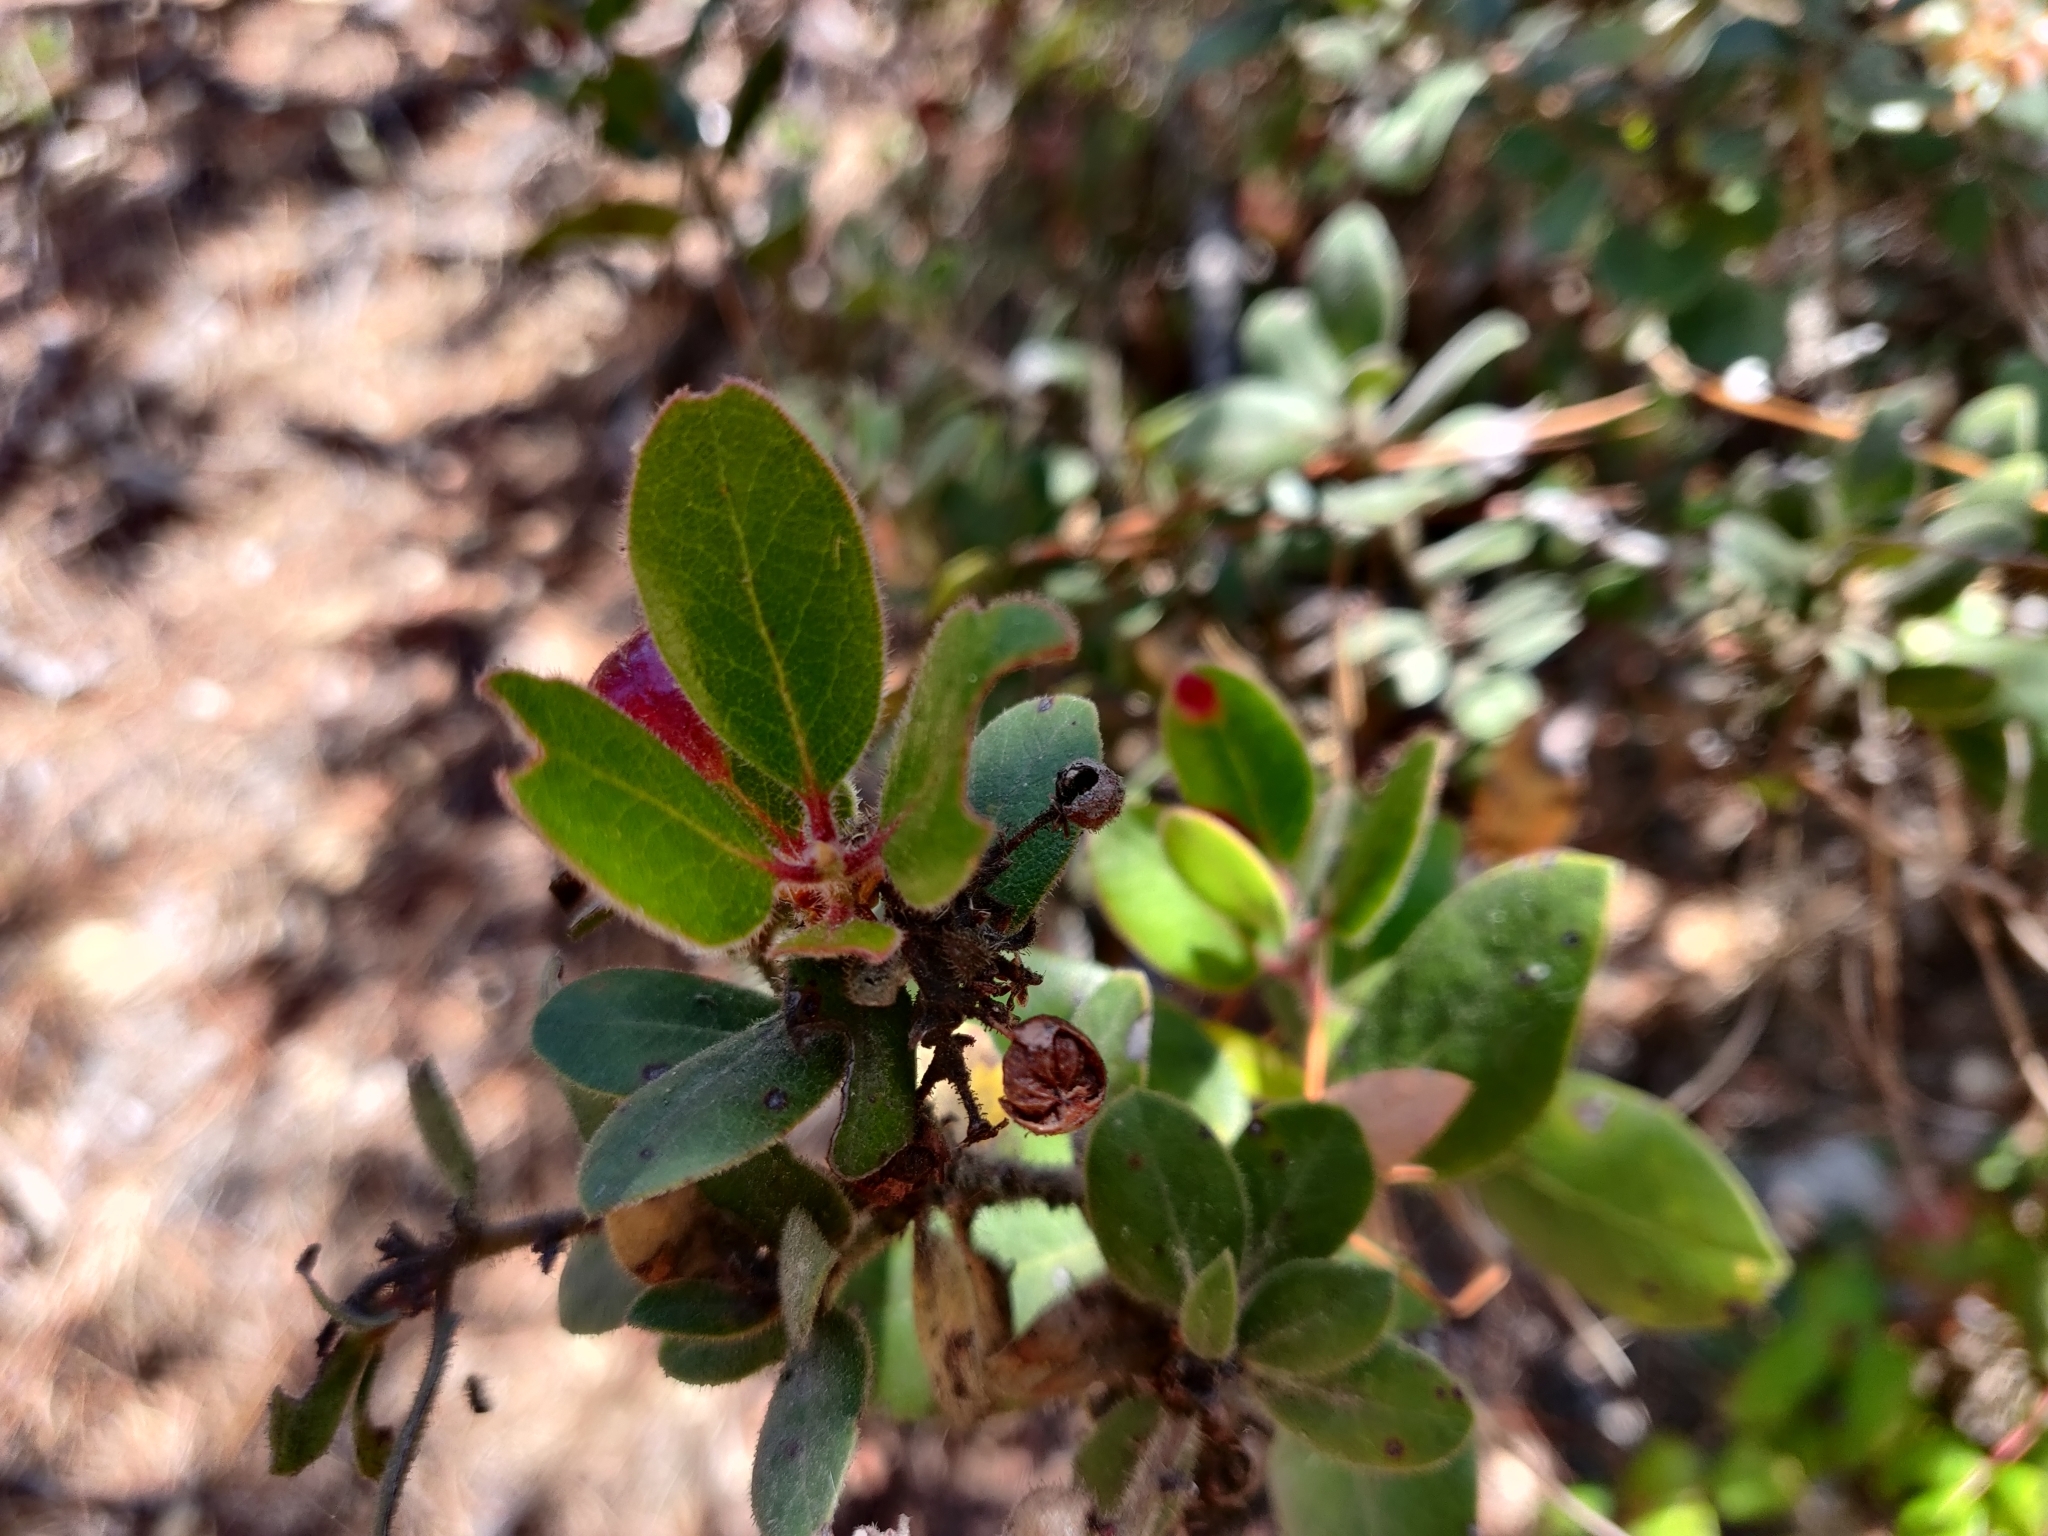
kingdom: Plantae
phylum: Tracheophyta
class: Magnoliopsida
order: Ericales
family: Ericaceae
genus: Arctostaphylos
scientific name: Arctostaphylos tomentosa
